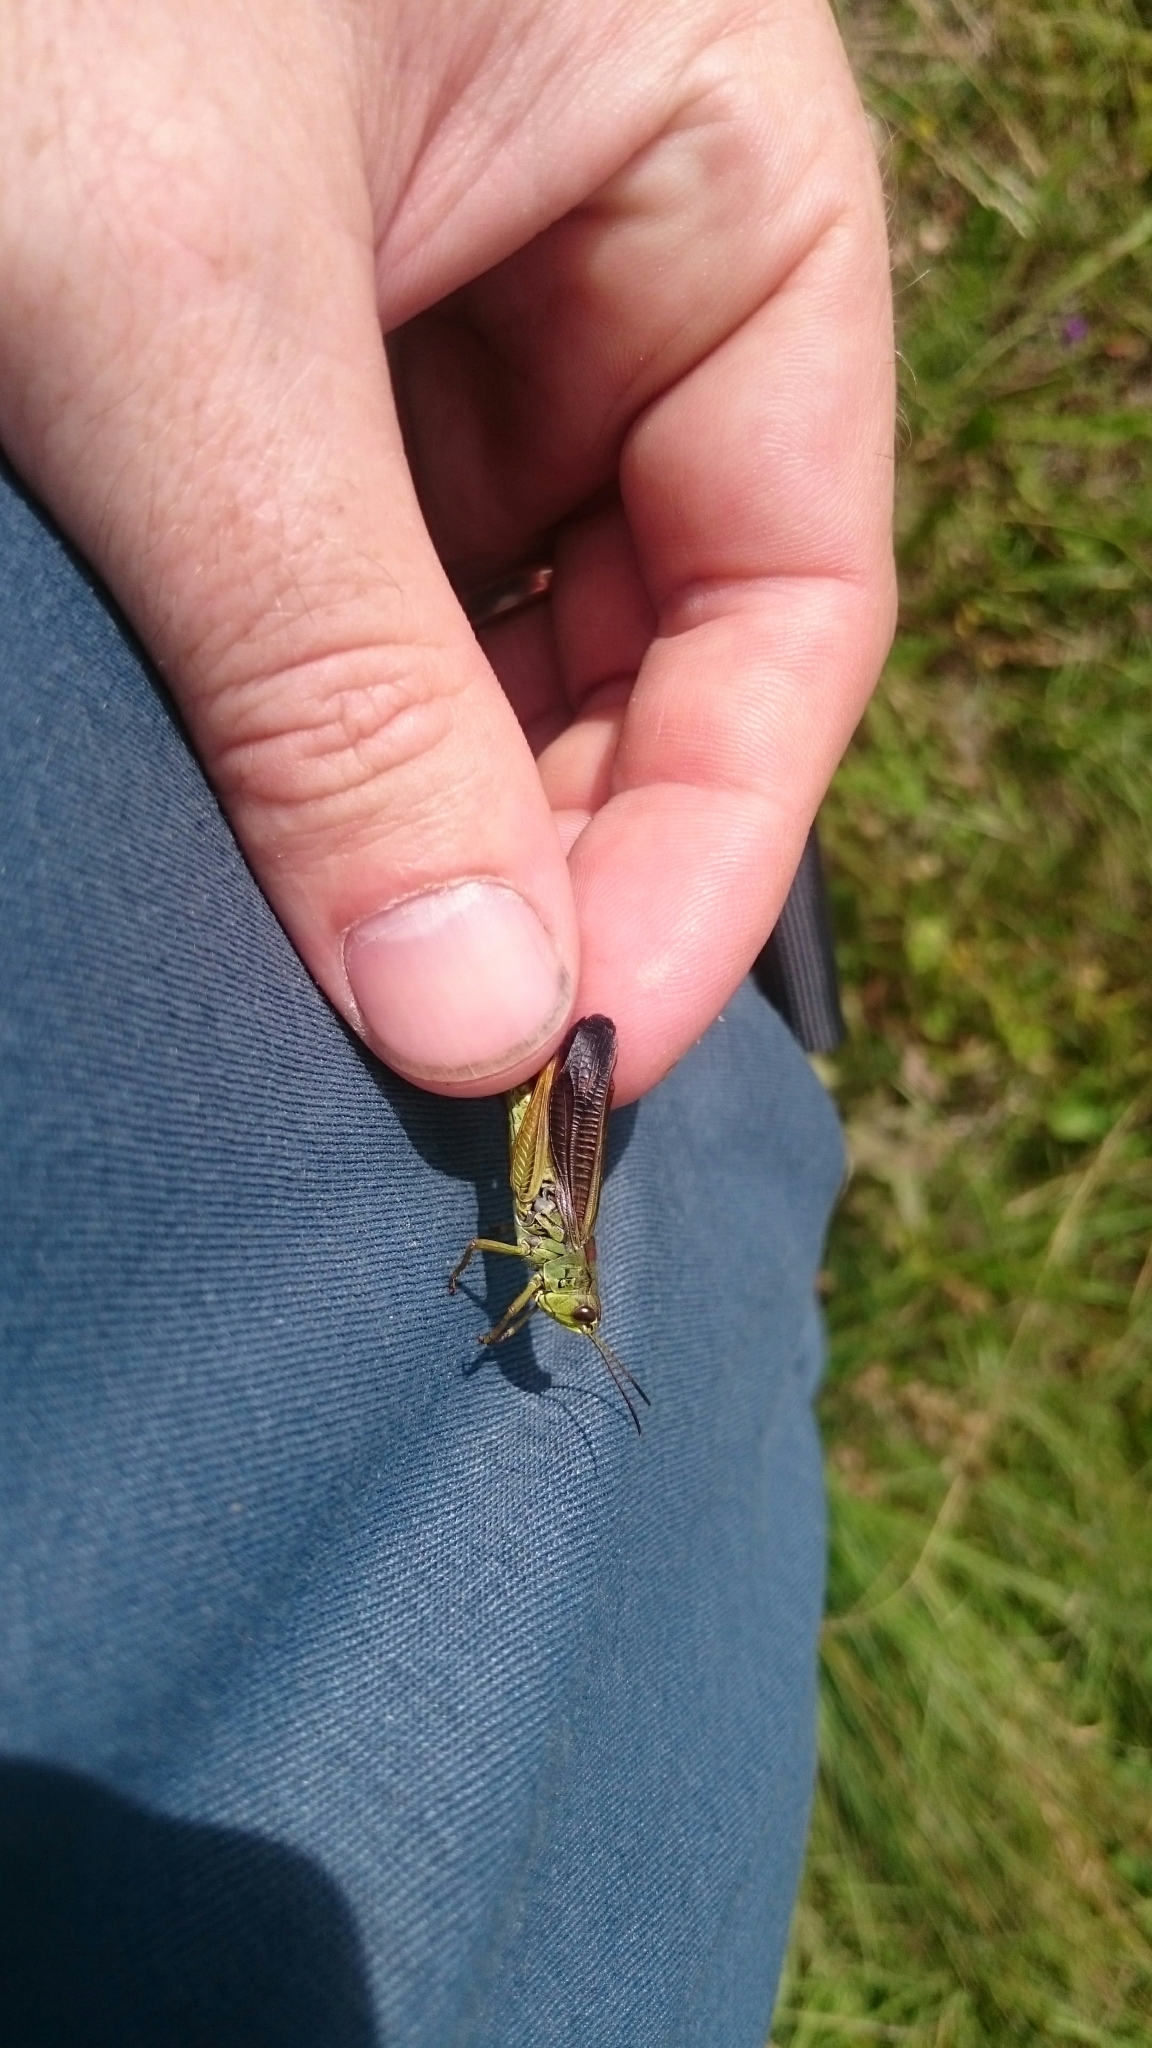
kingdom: Animalia
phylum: Arthropoda
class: Insecta
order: Orthoptera
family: Acrididae
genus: Stauroderus
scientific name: Stauroderus scalaris
